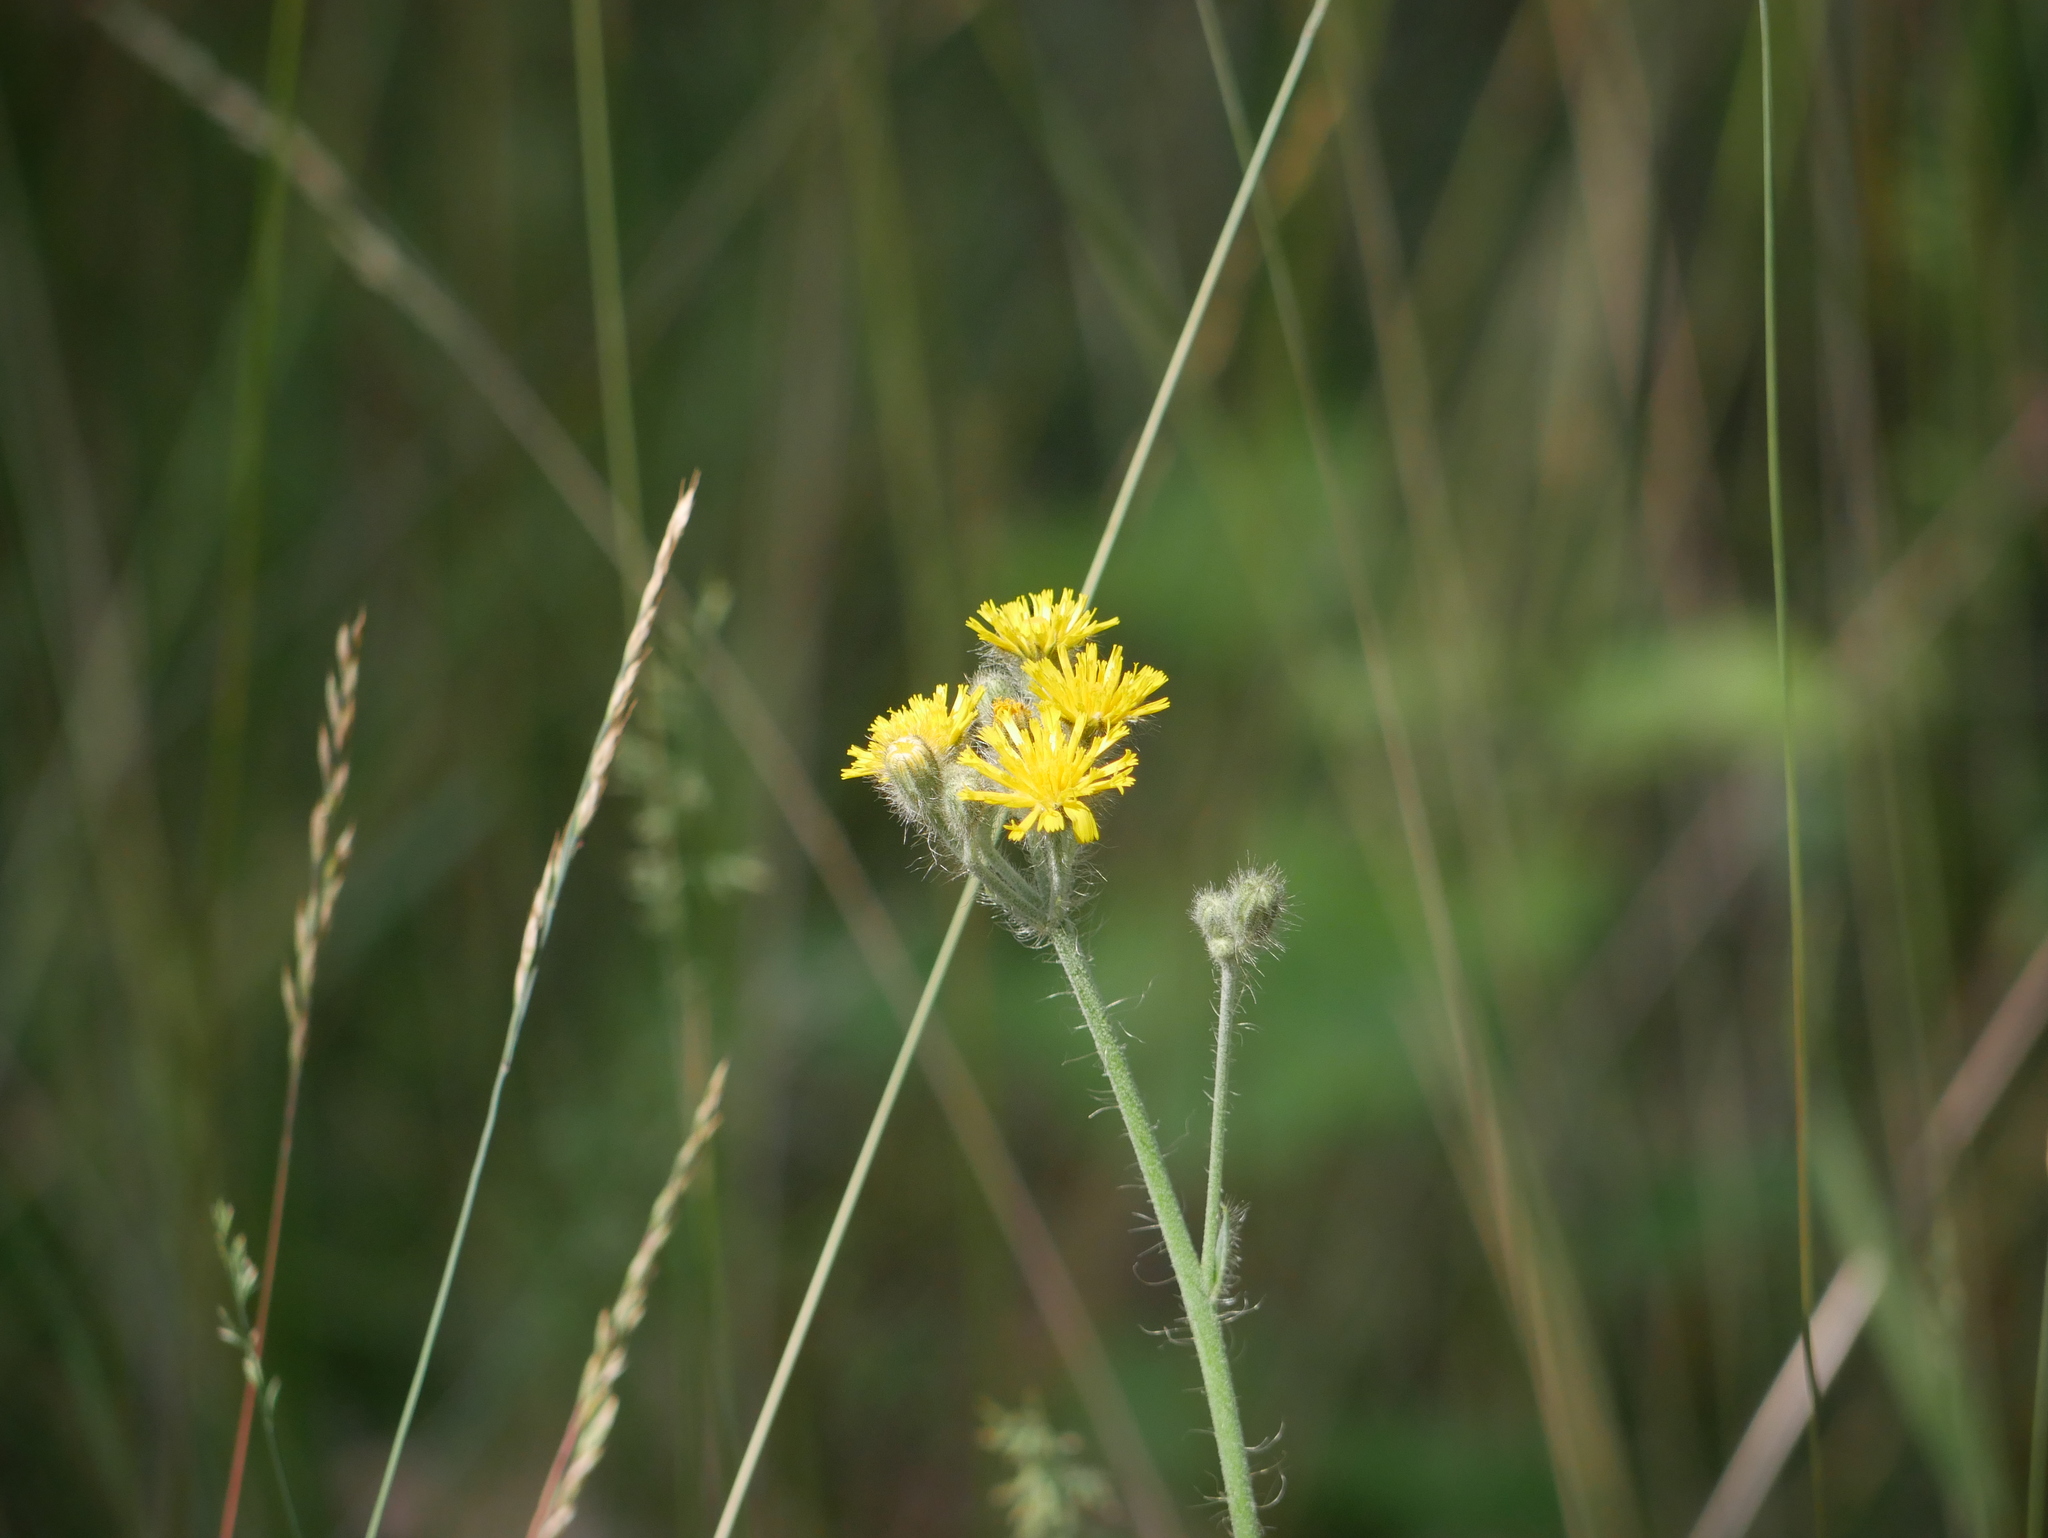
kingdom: Plantae
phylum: Tracheophyta
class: Magnoliopsida
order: Asterales
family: Asteraceae
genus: Pilosella
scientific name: Pilosella caespitosa
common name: Yellow fox-and-cubs
